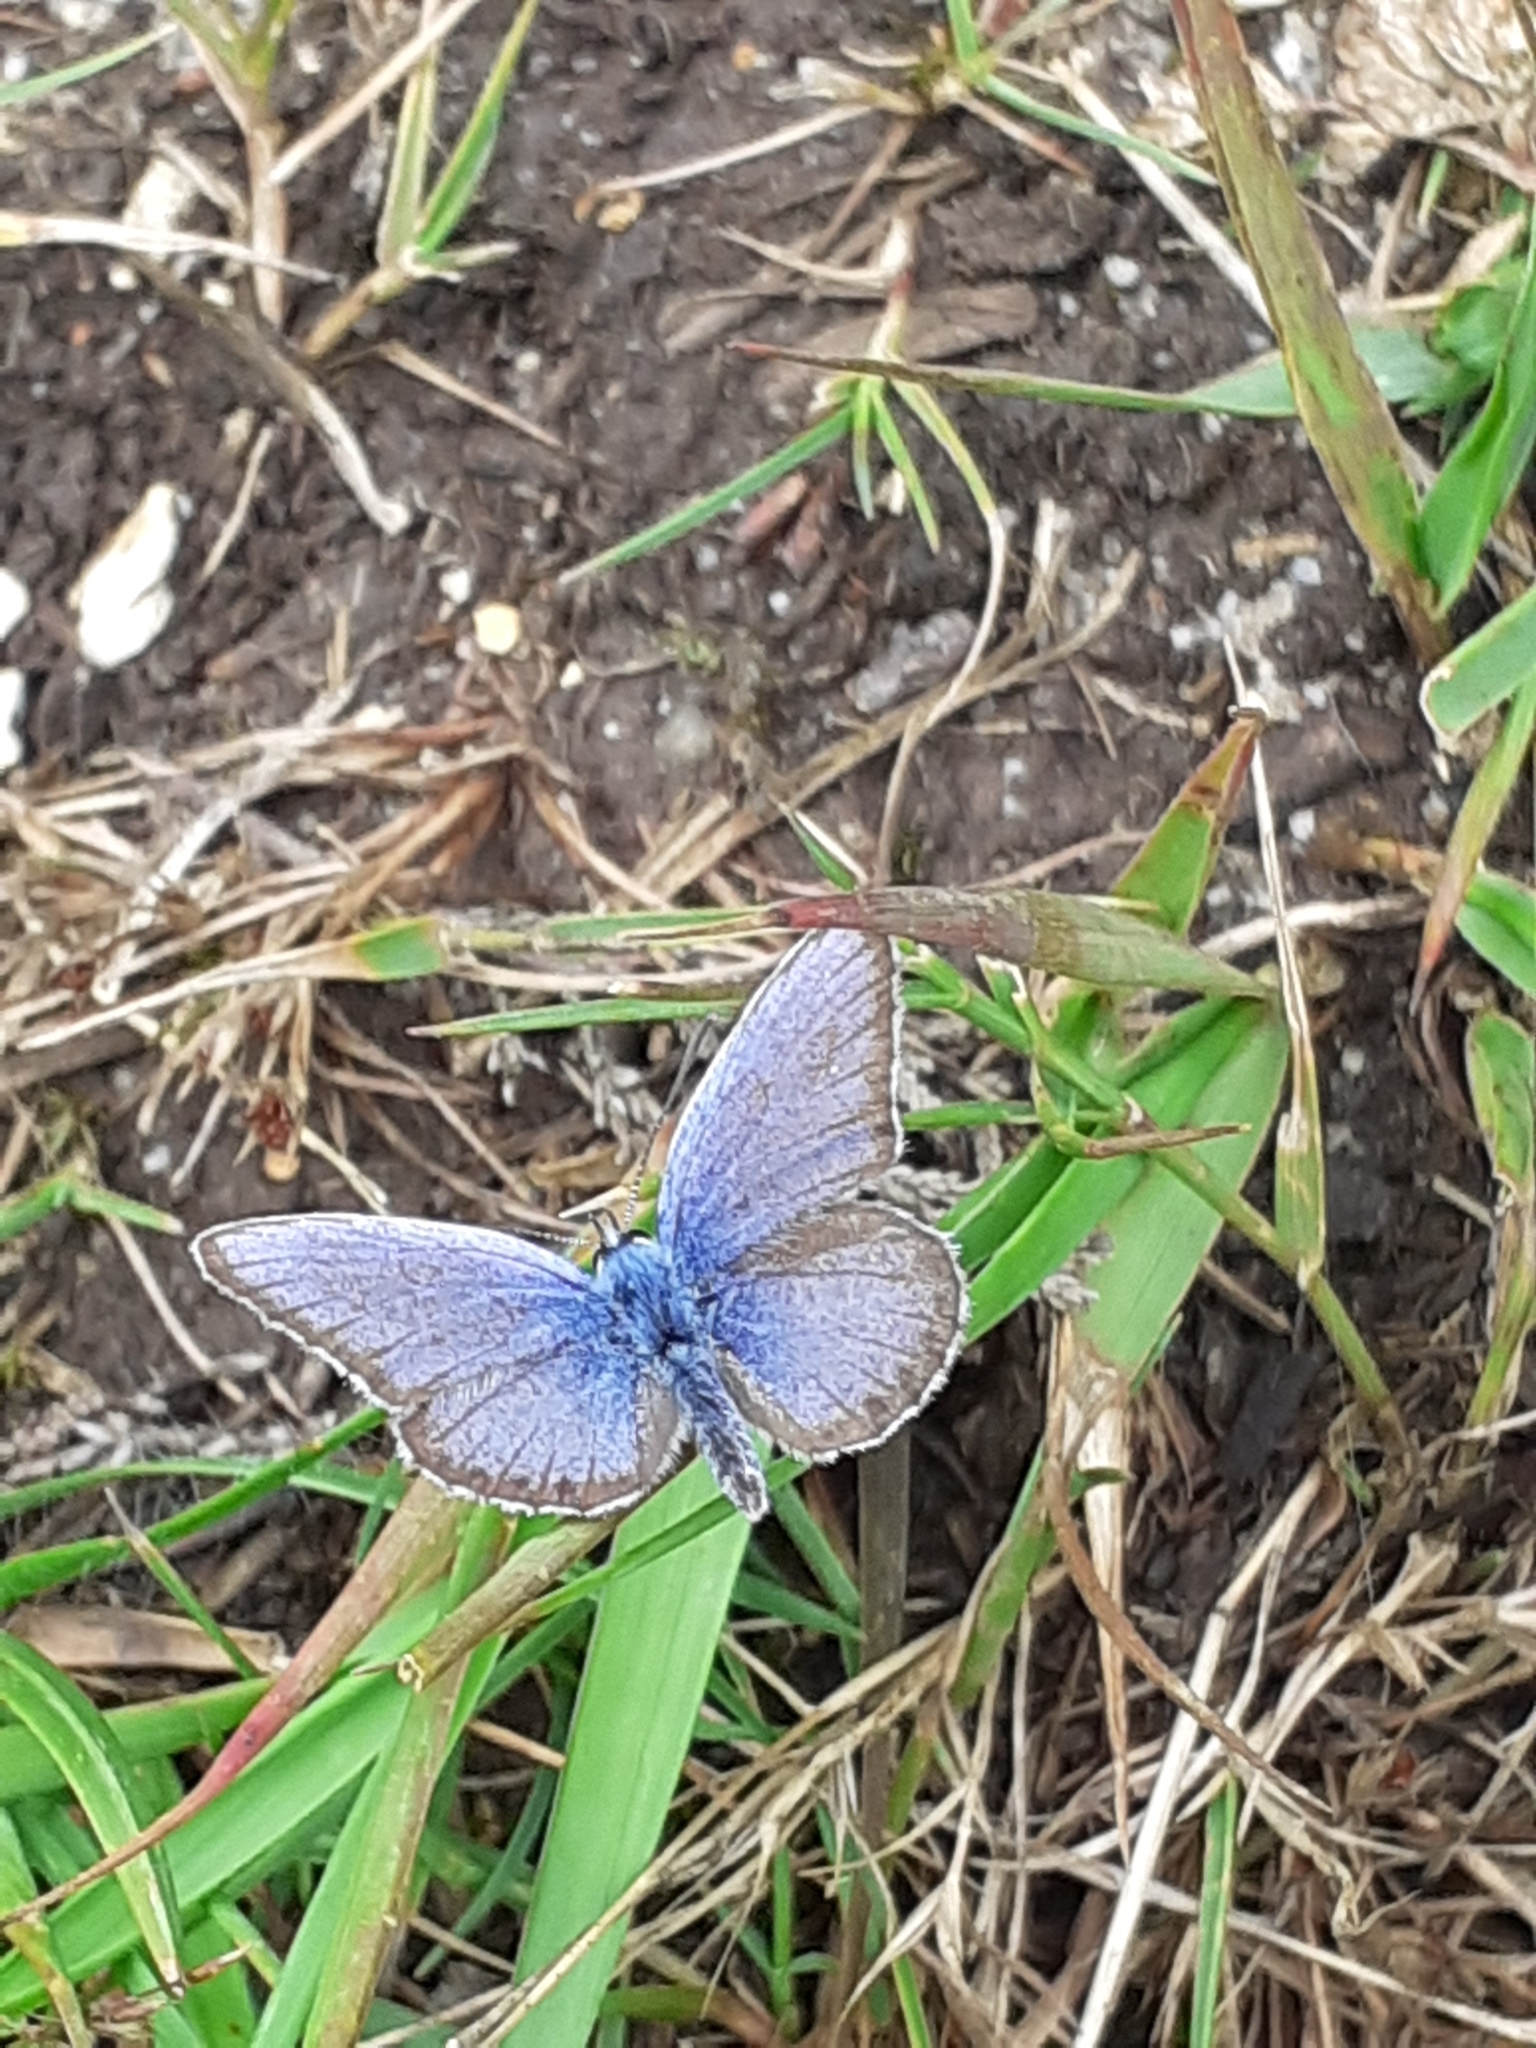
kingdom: Animalia
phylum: Arthropoda
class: Insecta
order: Lepidoptera
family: Lycaenidae
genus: Plebejus
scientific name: Plebejus argus
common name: Silver-studded blue
